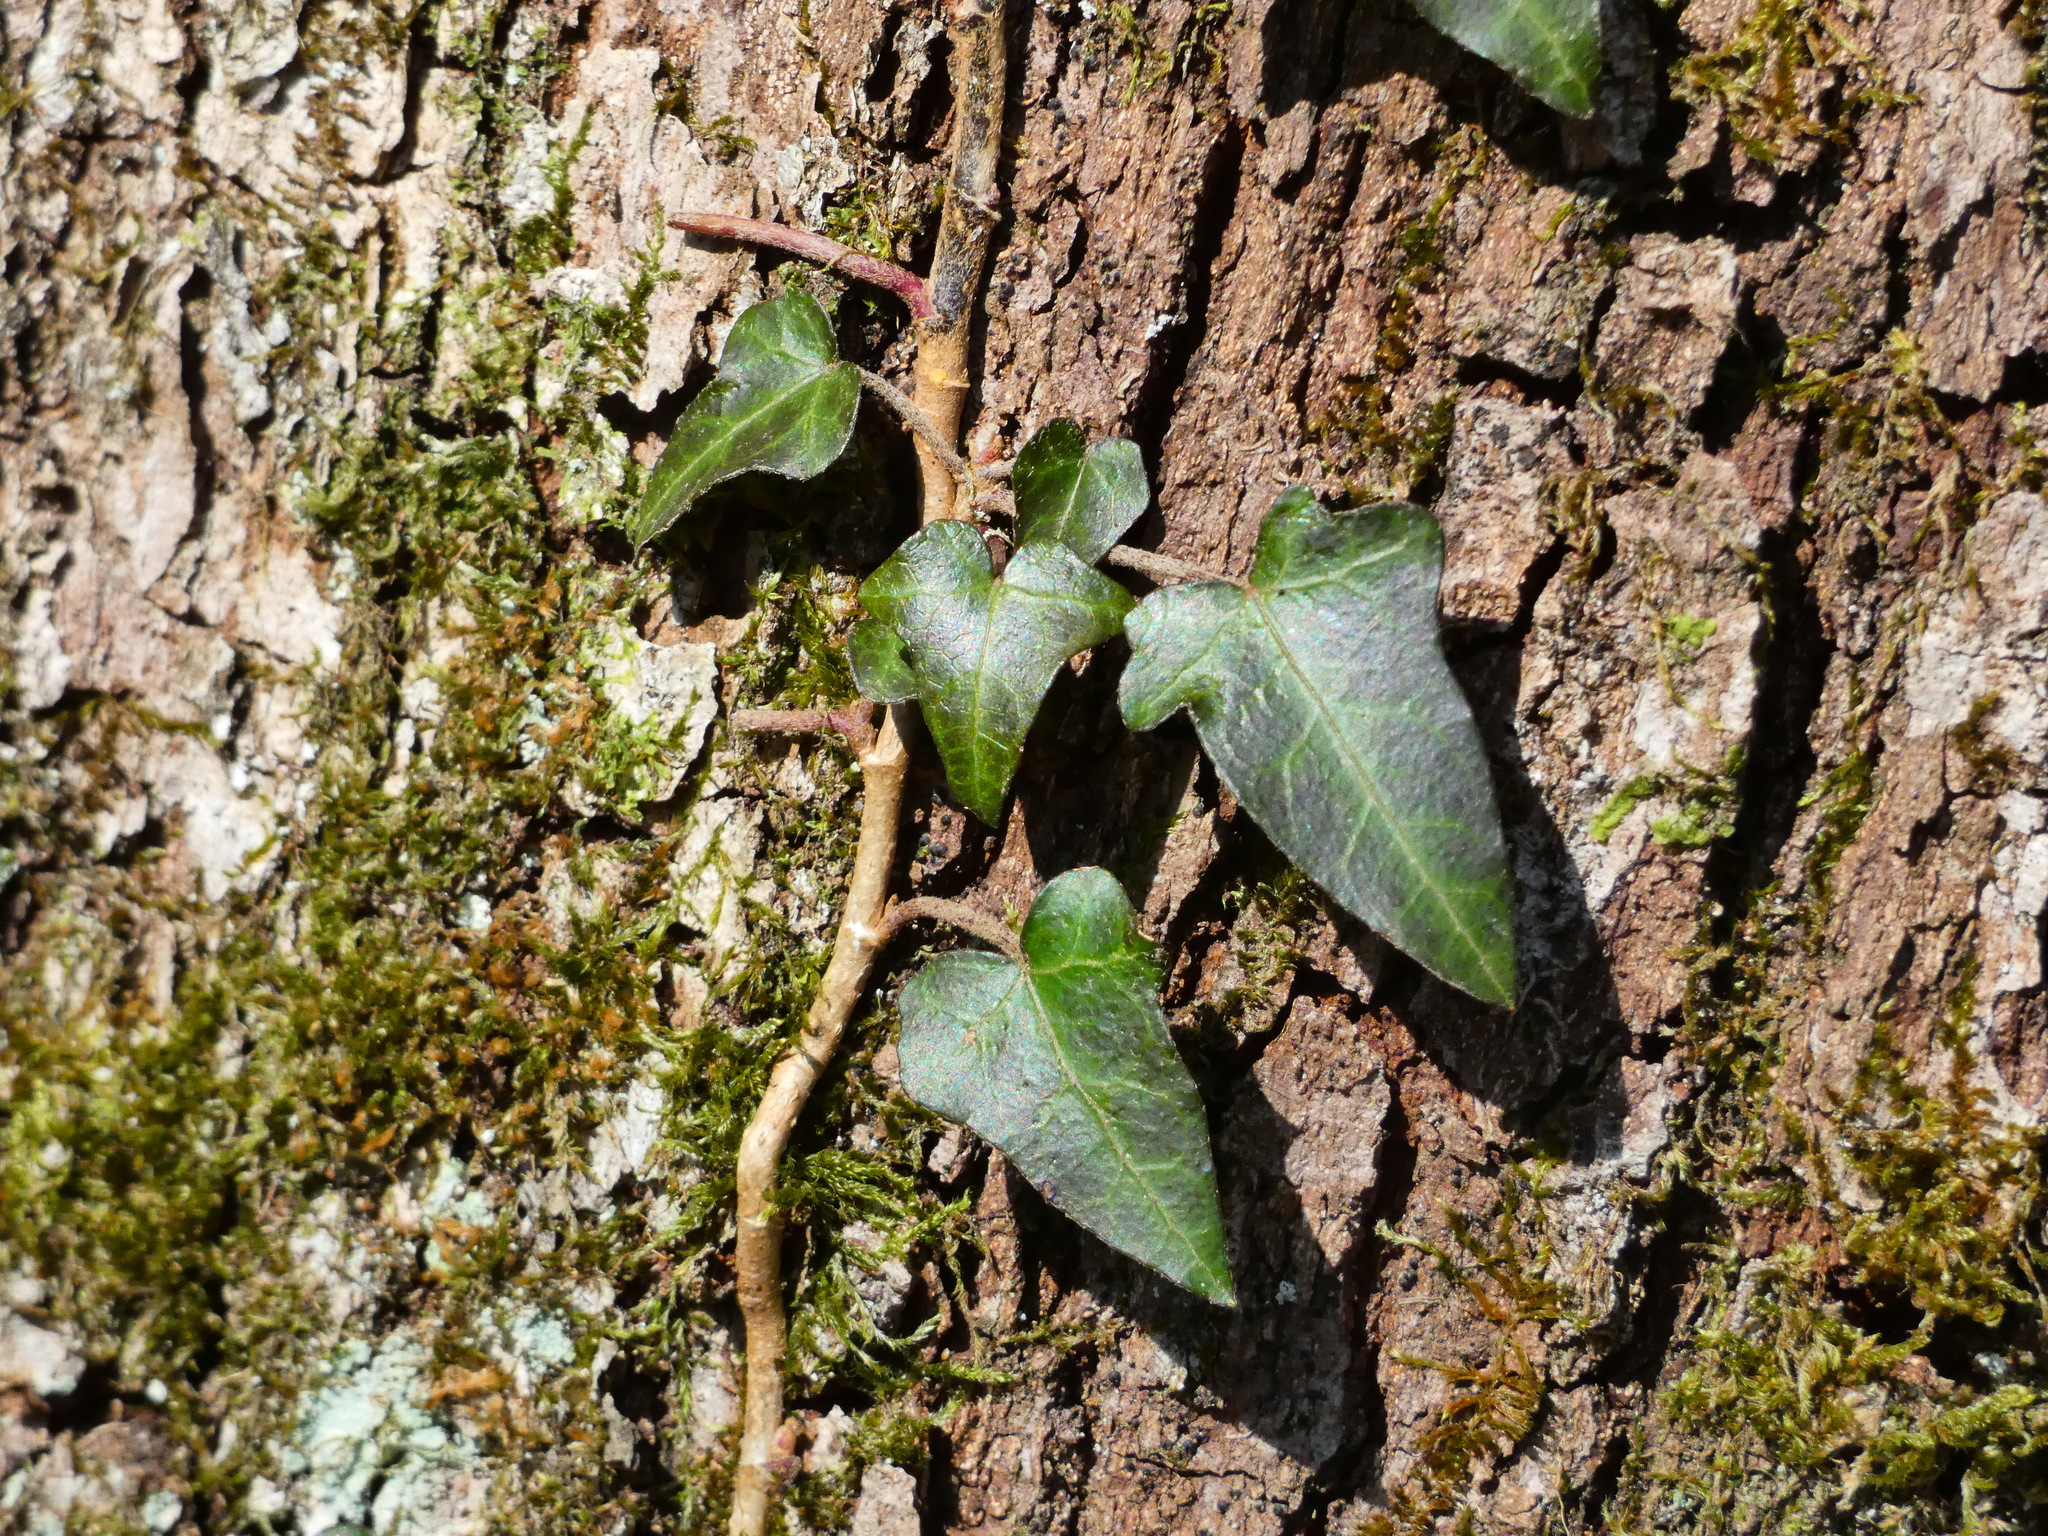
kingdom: Plantae
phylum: Tracheophyta
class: Magnoliopsida
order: Apiales
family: Araliaceae
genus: Hedera
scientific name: Hedera helix
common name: Ivy
